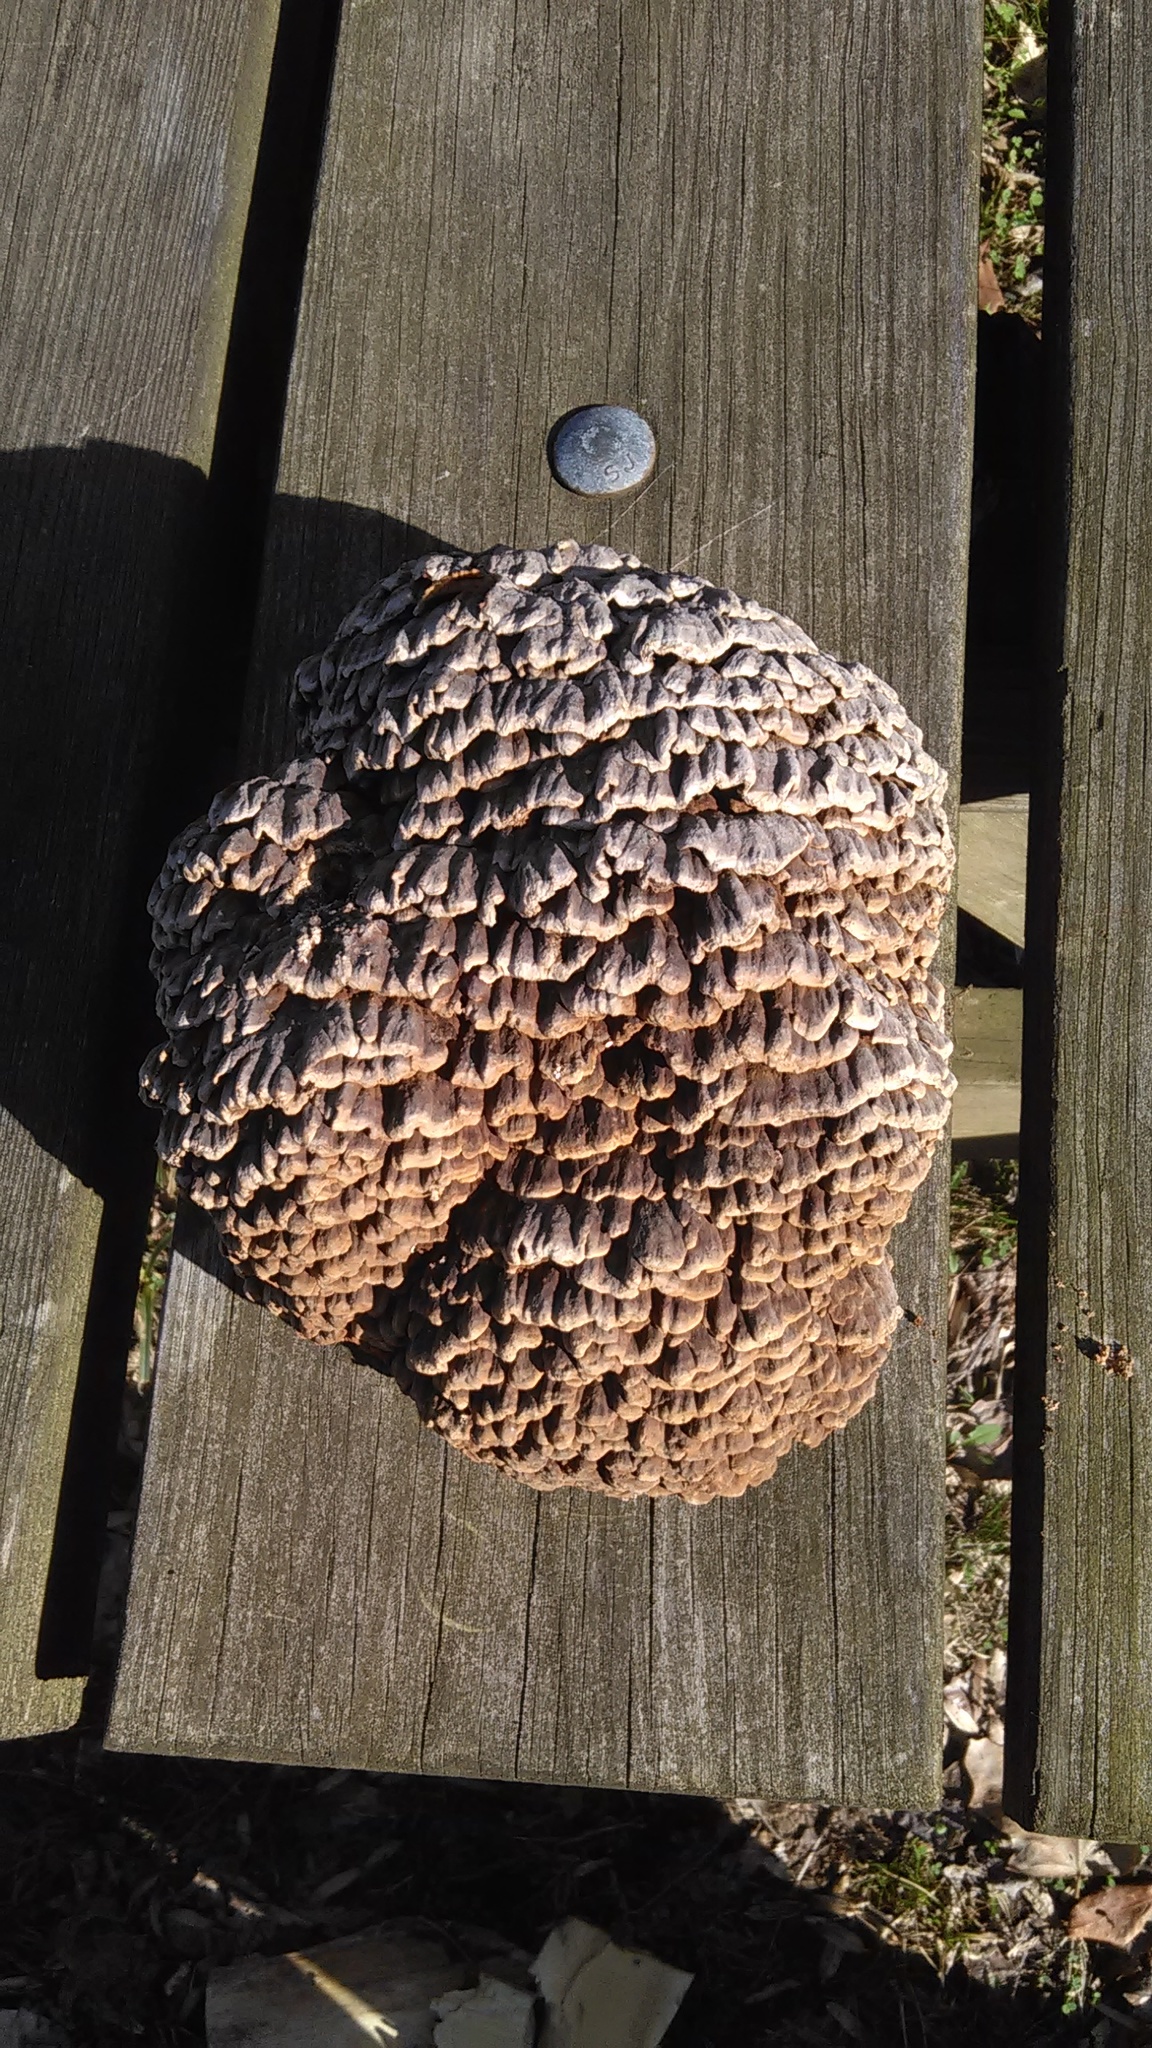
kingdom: Fungi
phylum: Basidiomycota
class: Agaricomycetes
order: Polyporales
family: Polyporaceae
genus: Globifomes
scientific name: Globifomes graveolens
